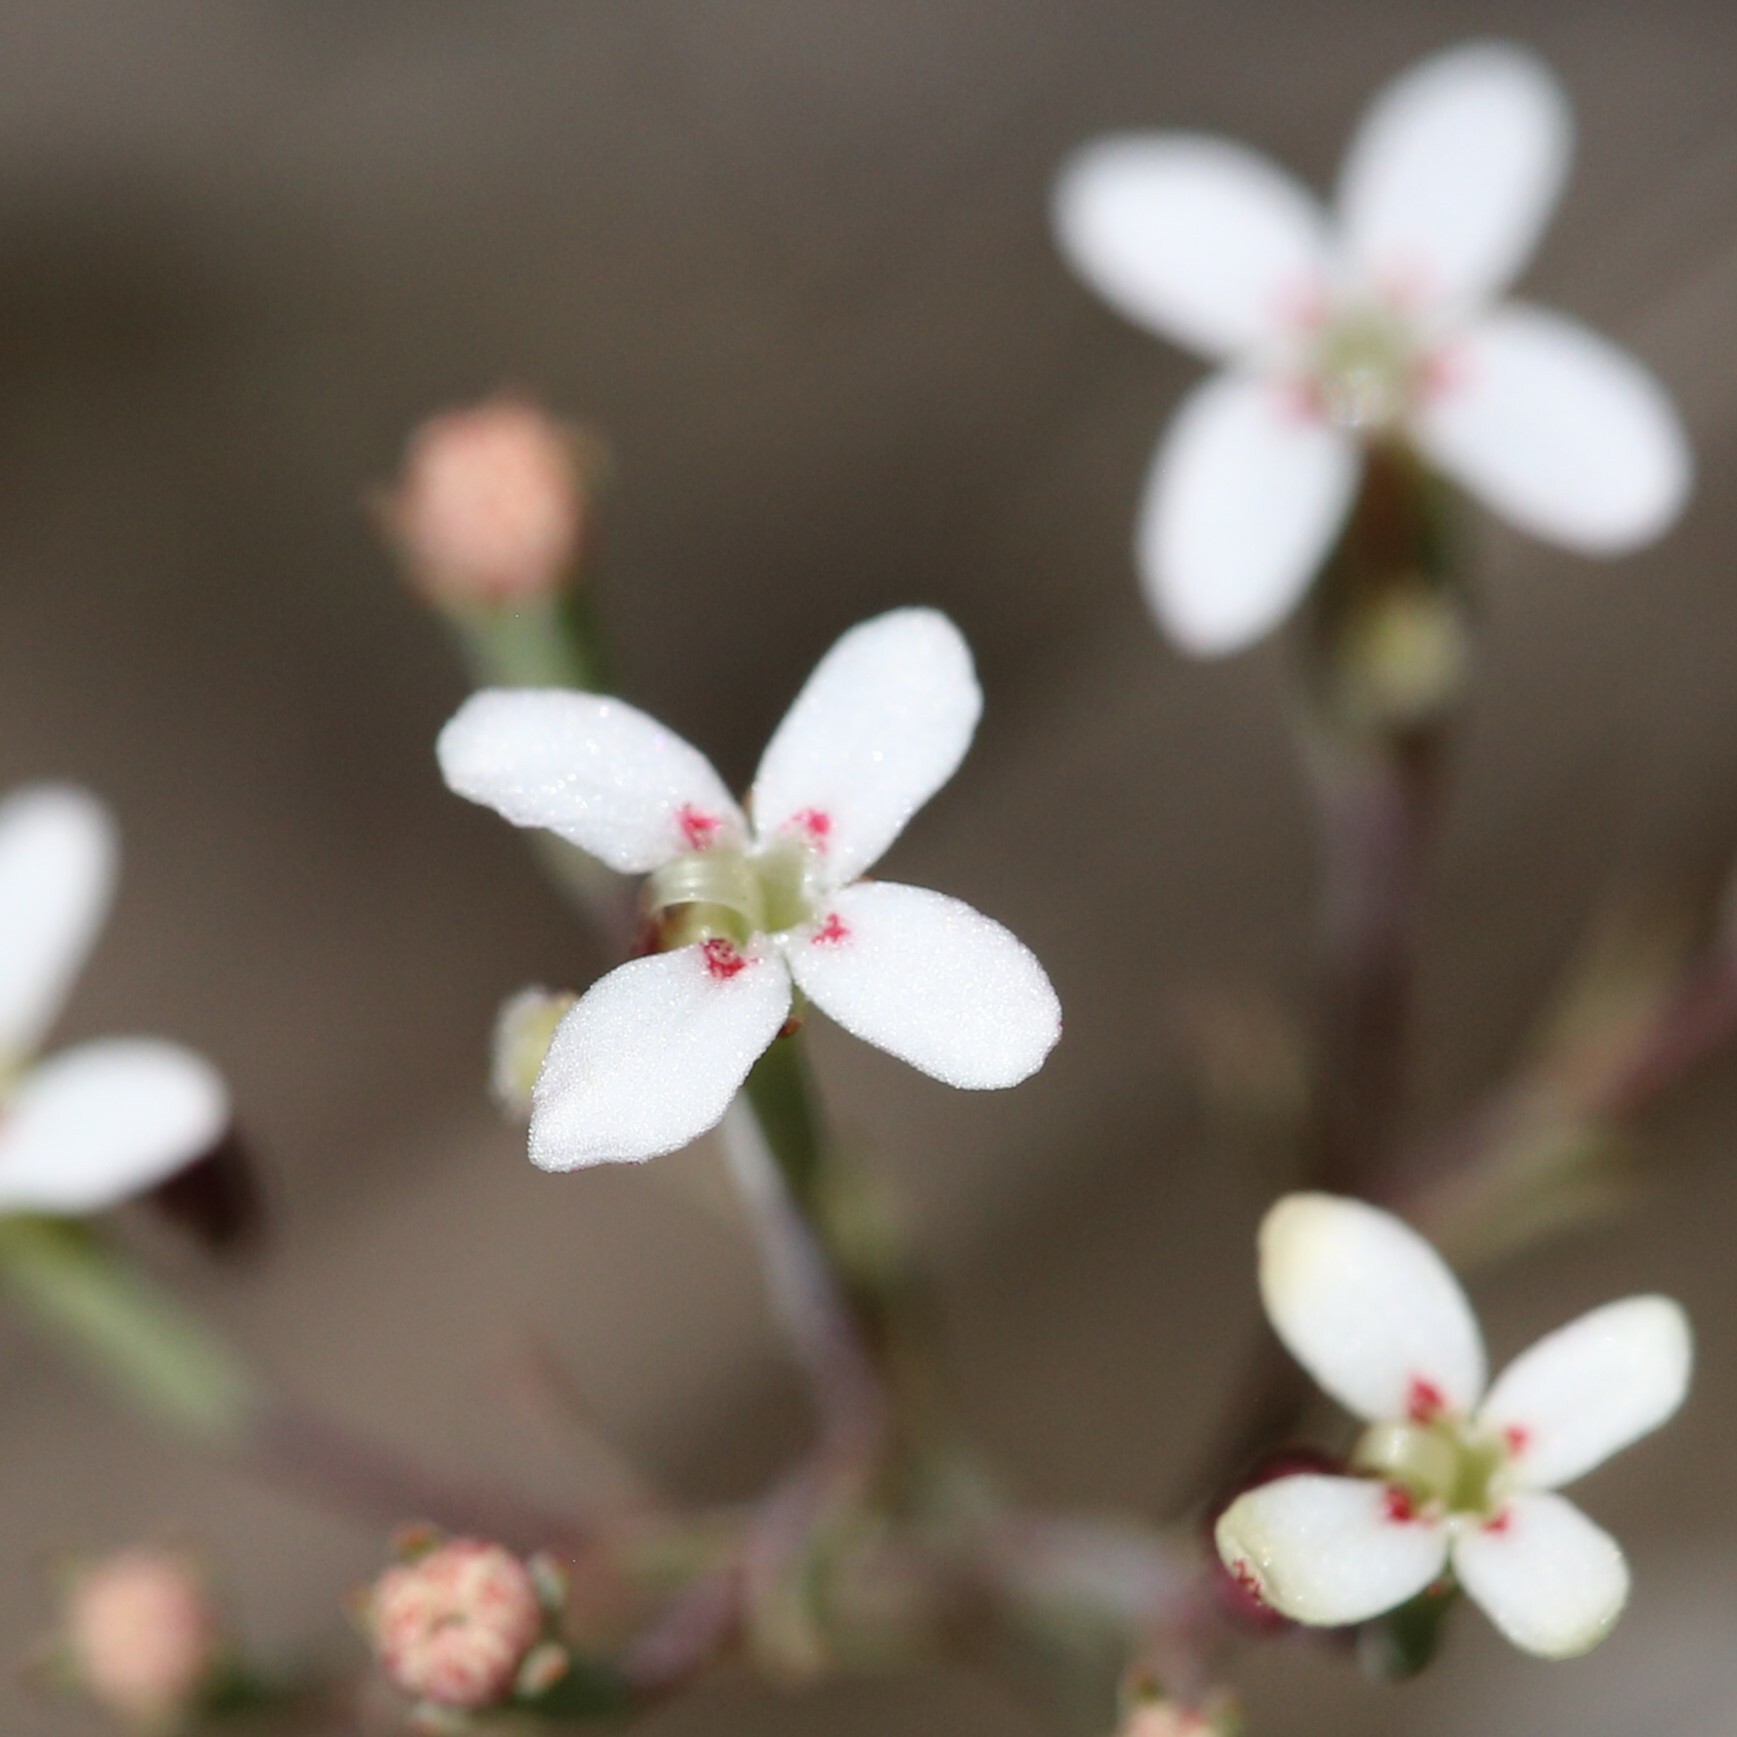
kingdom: Plantae
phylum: Tracheophyta
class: Magnoliopsida
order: Asterales
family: Stylidiaceae
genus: Stylidium
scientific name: Stylidium pulchellum
